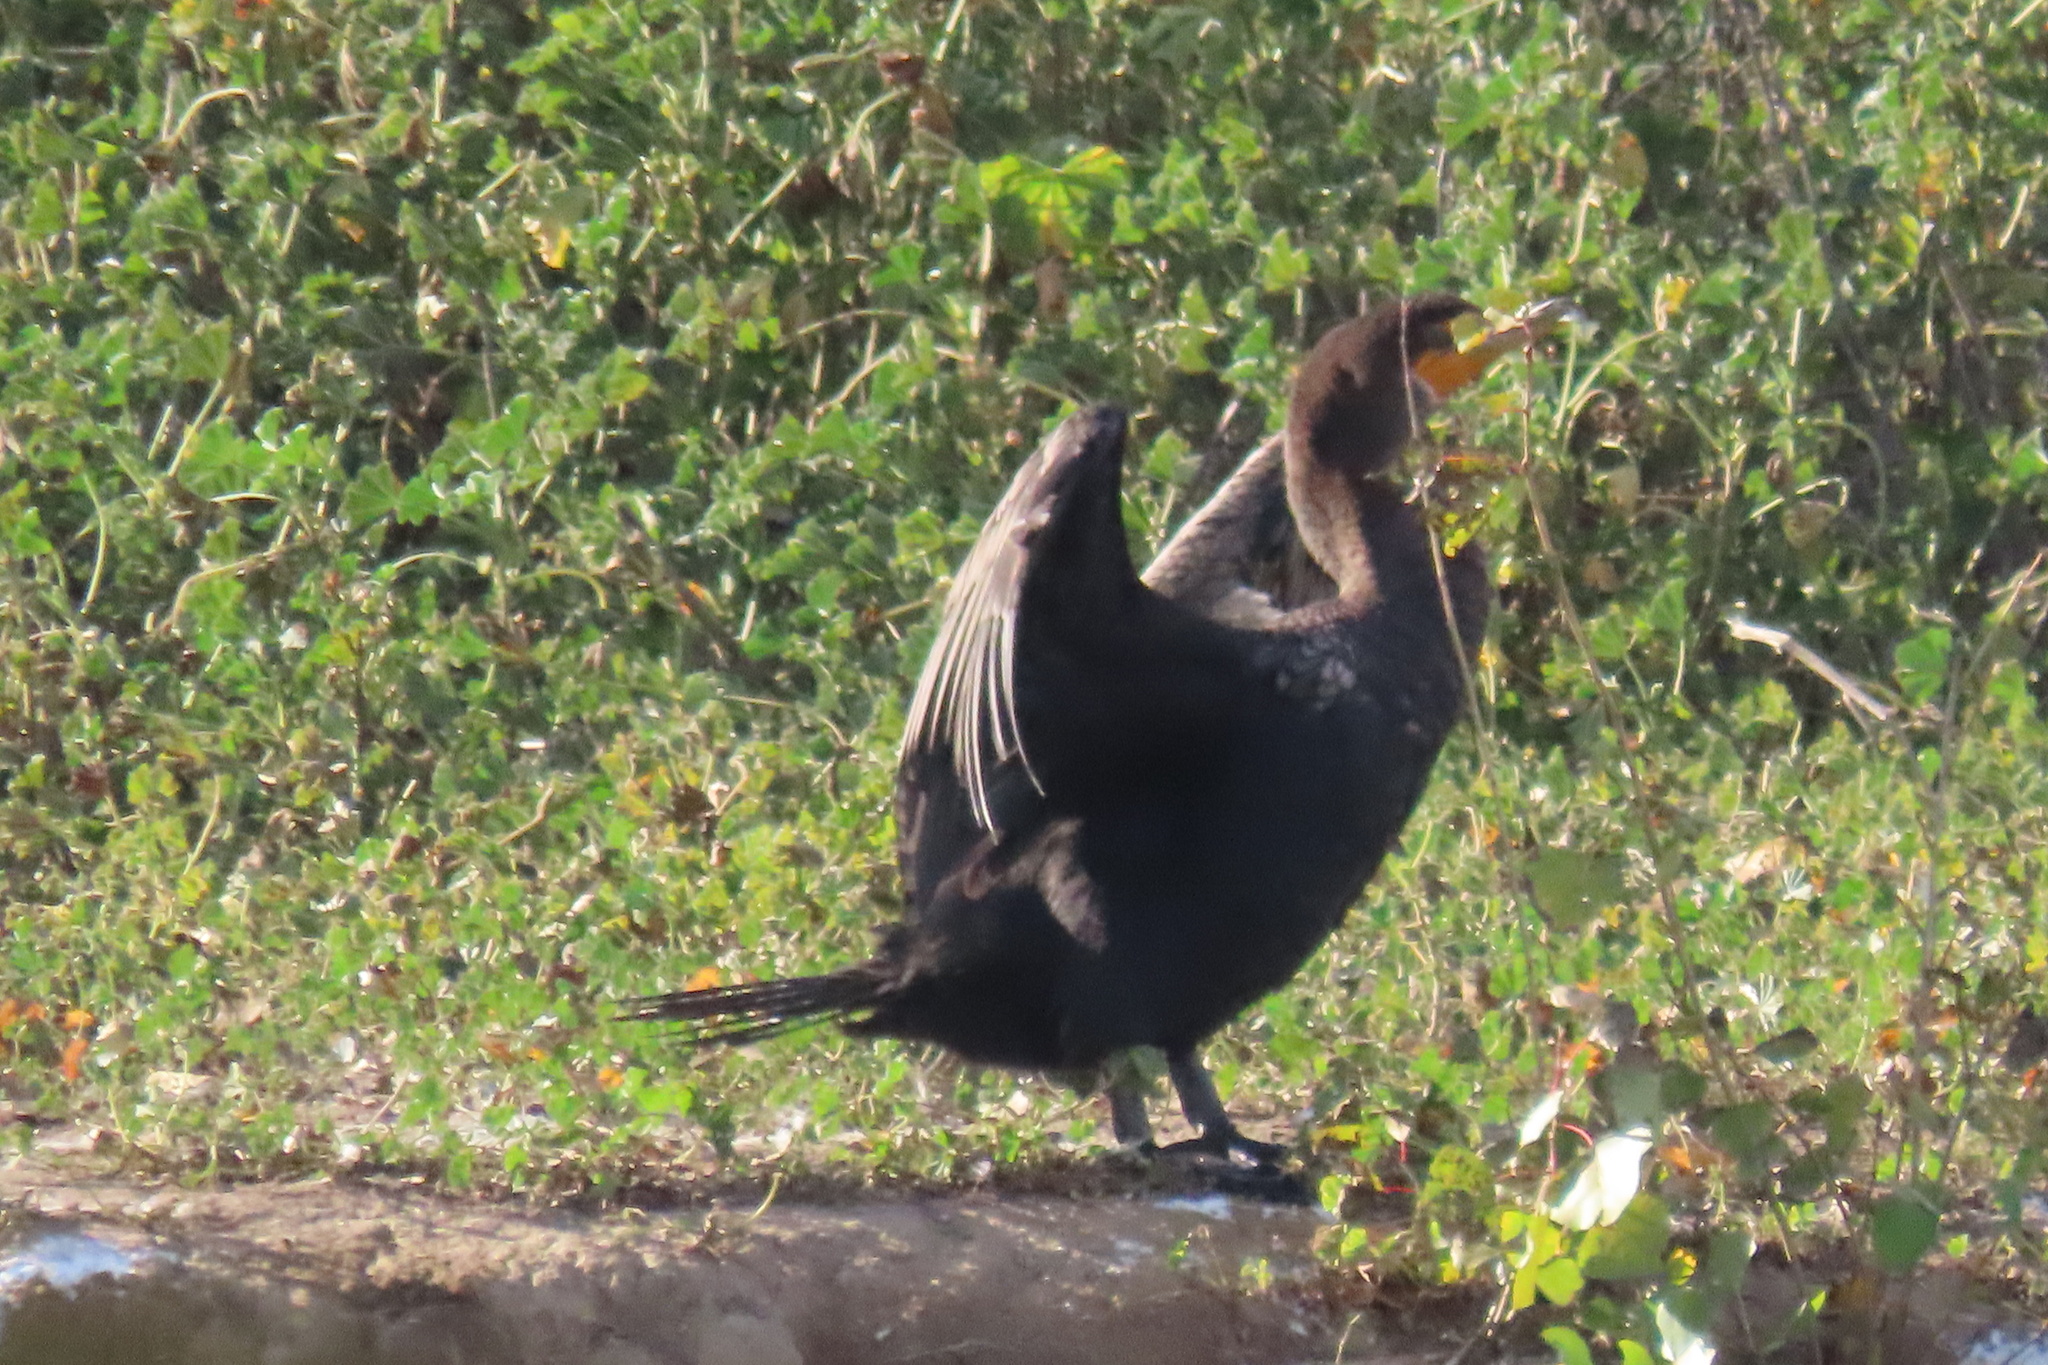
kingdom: Animalia
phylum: Chordata
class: Aves
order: Suliformes
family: Phalacrocoracidae
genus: Phalacrocorax
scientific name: Phalacrocorax auritus
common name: Double-crested cormorant
